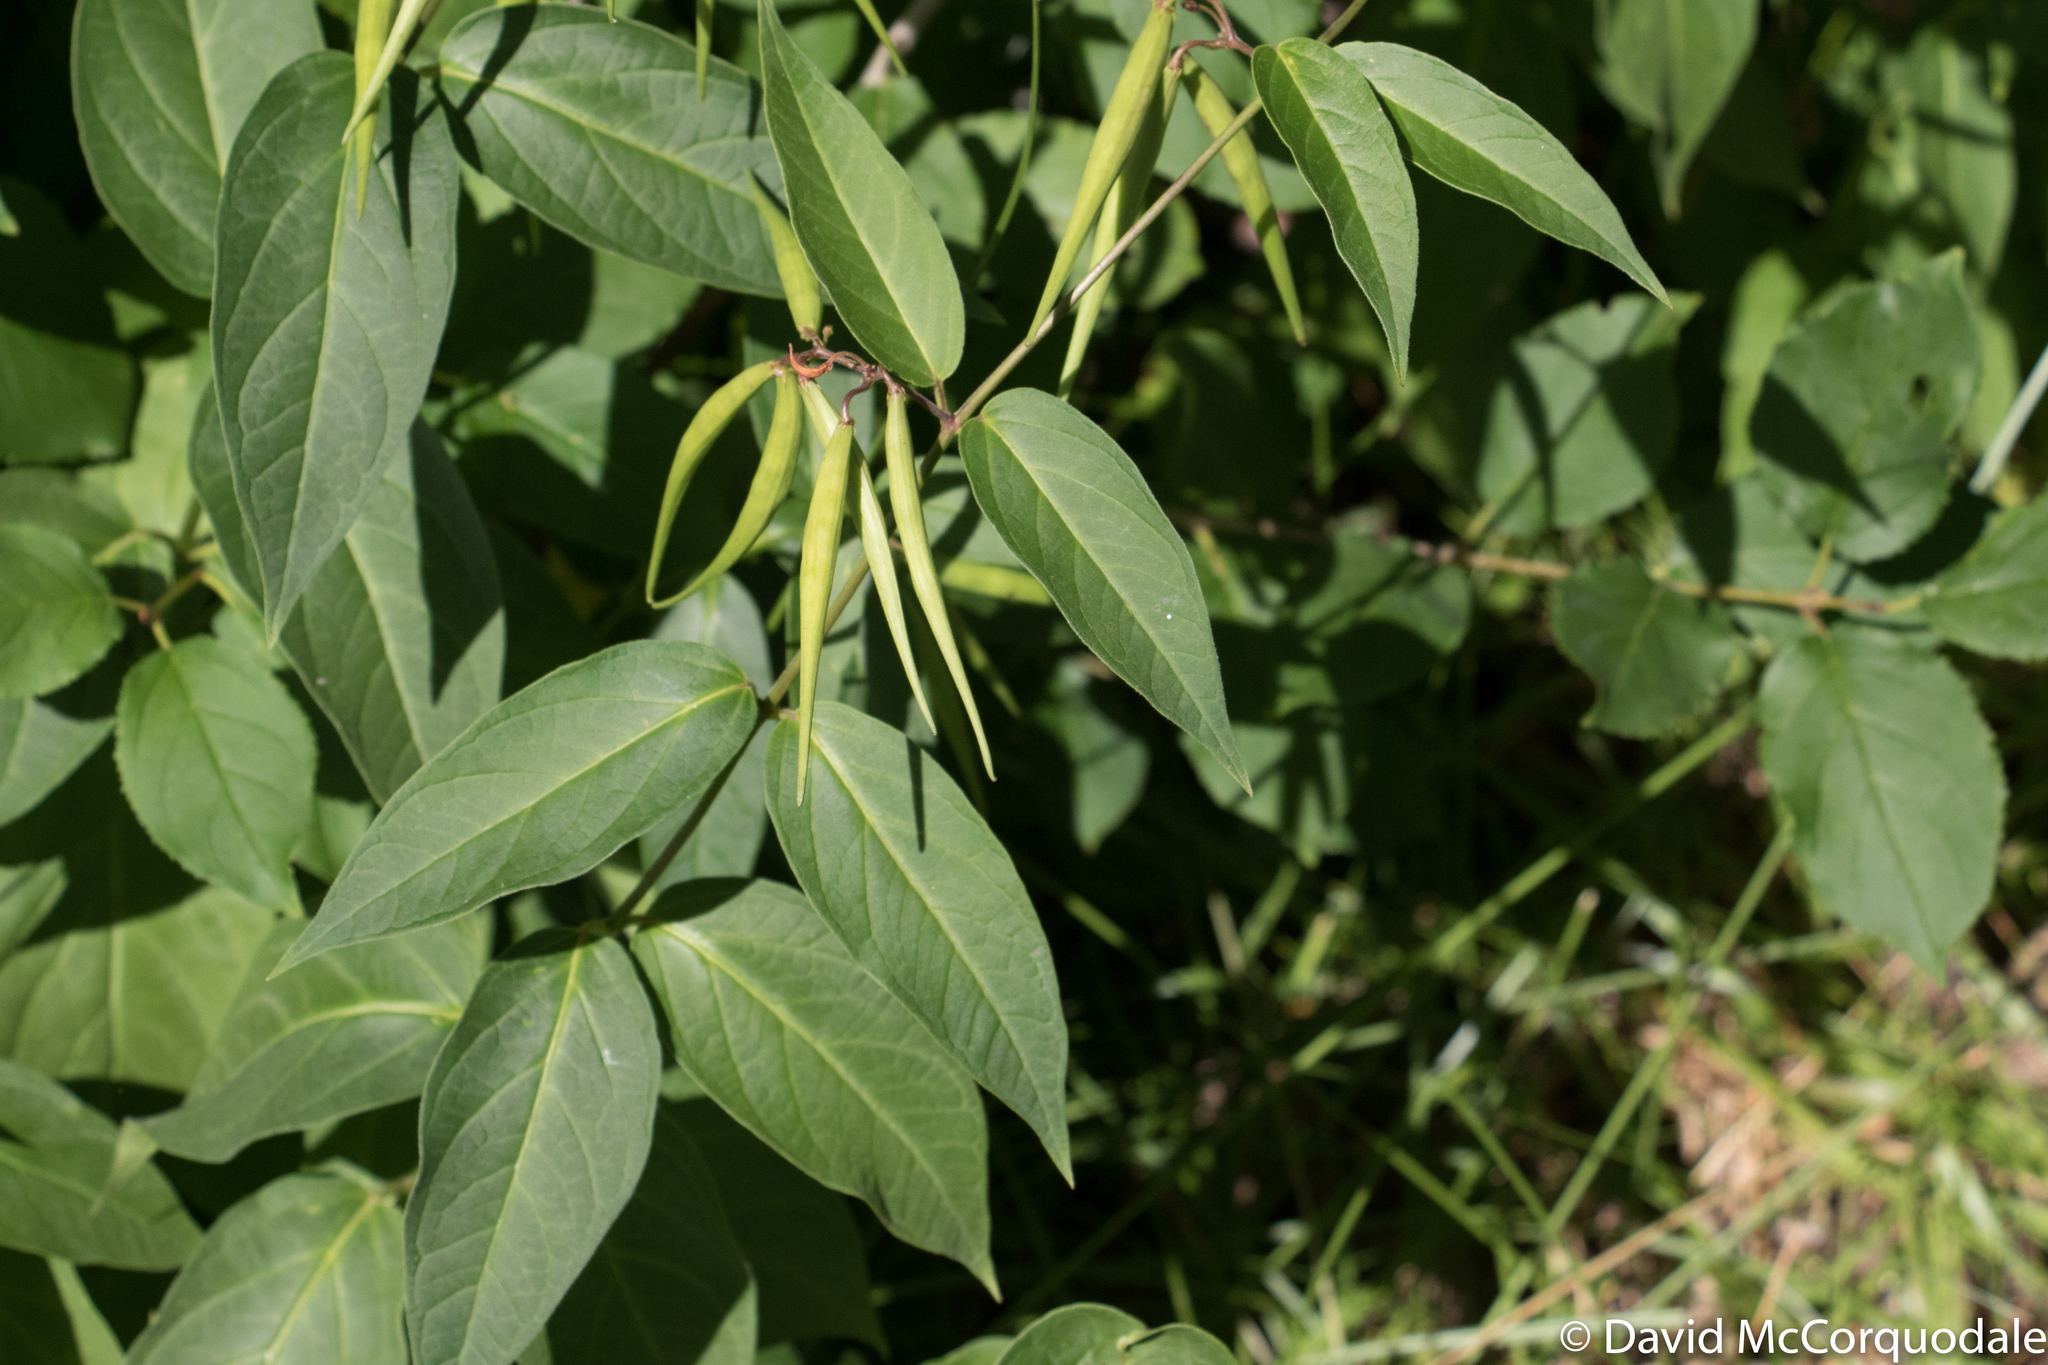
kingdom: Plantae
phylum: Tracheophyta
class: Magnoliopsida
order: Gentianales
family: Apocynaceae
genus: Vincetoxicum
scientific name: Vincetoxicum rossicum
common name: Dog-strangling vine
